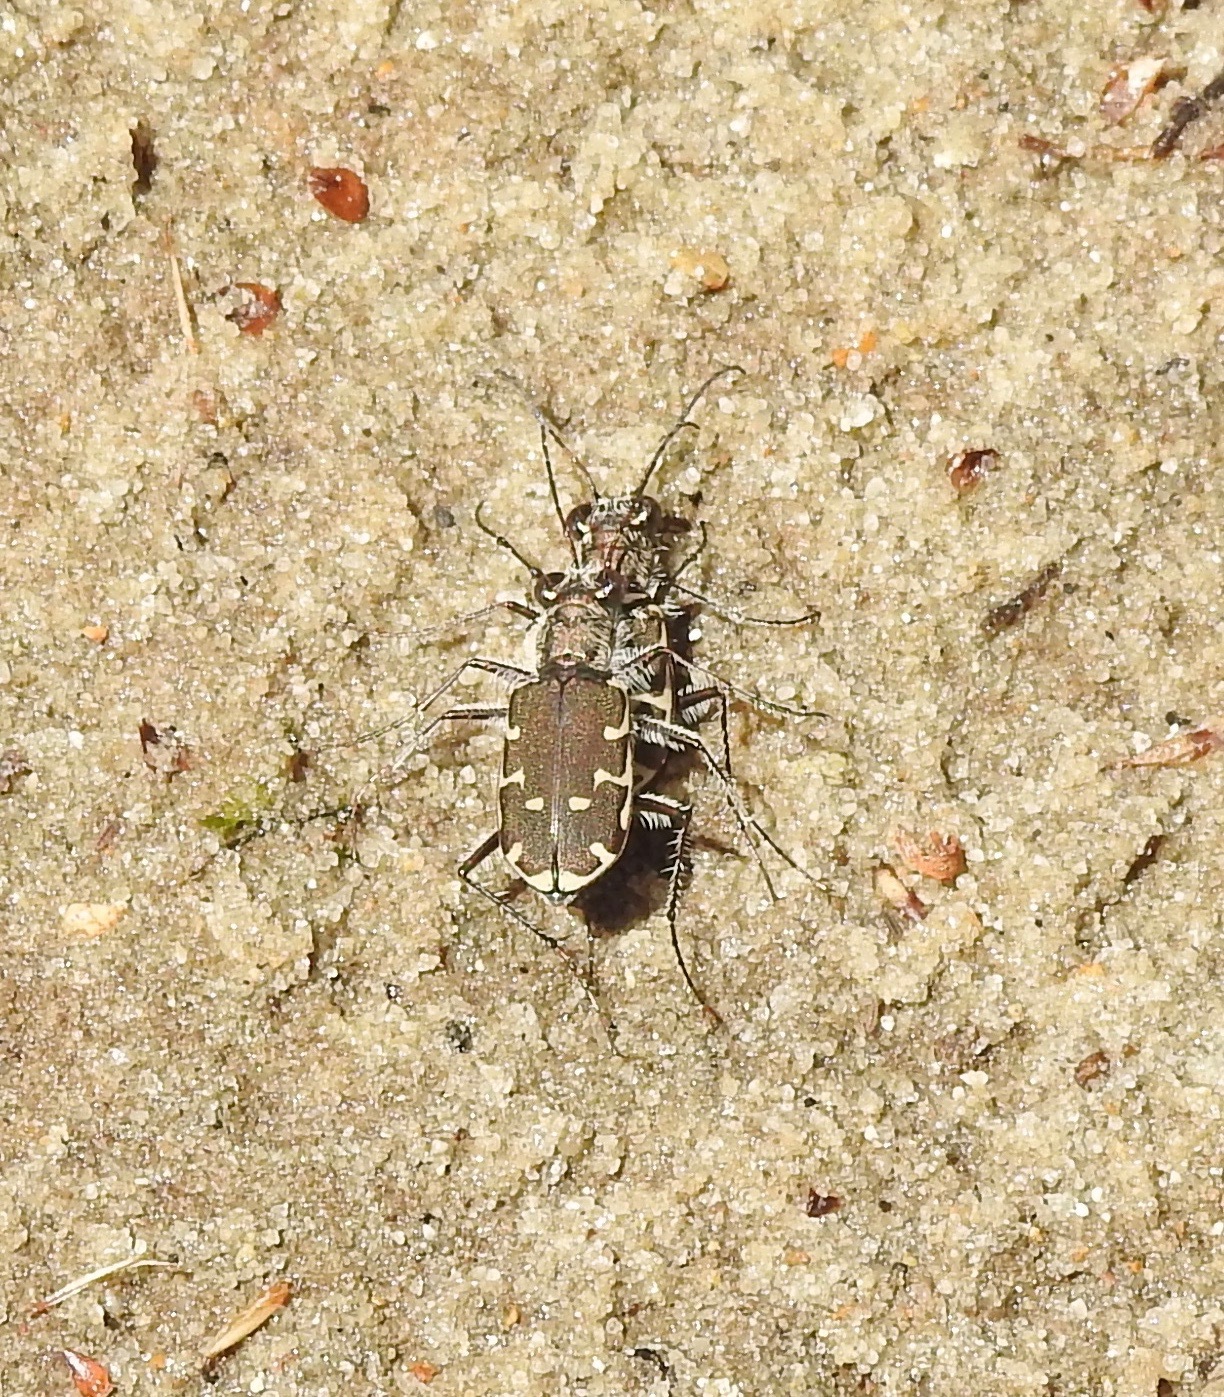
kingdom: Animalia
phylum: Arthropoda
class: Insecta
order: Coleoptera
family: Carabidae
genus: Cicindela
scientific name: Cicindela repanda
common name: Bronzed tiger beetle
